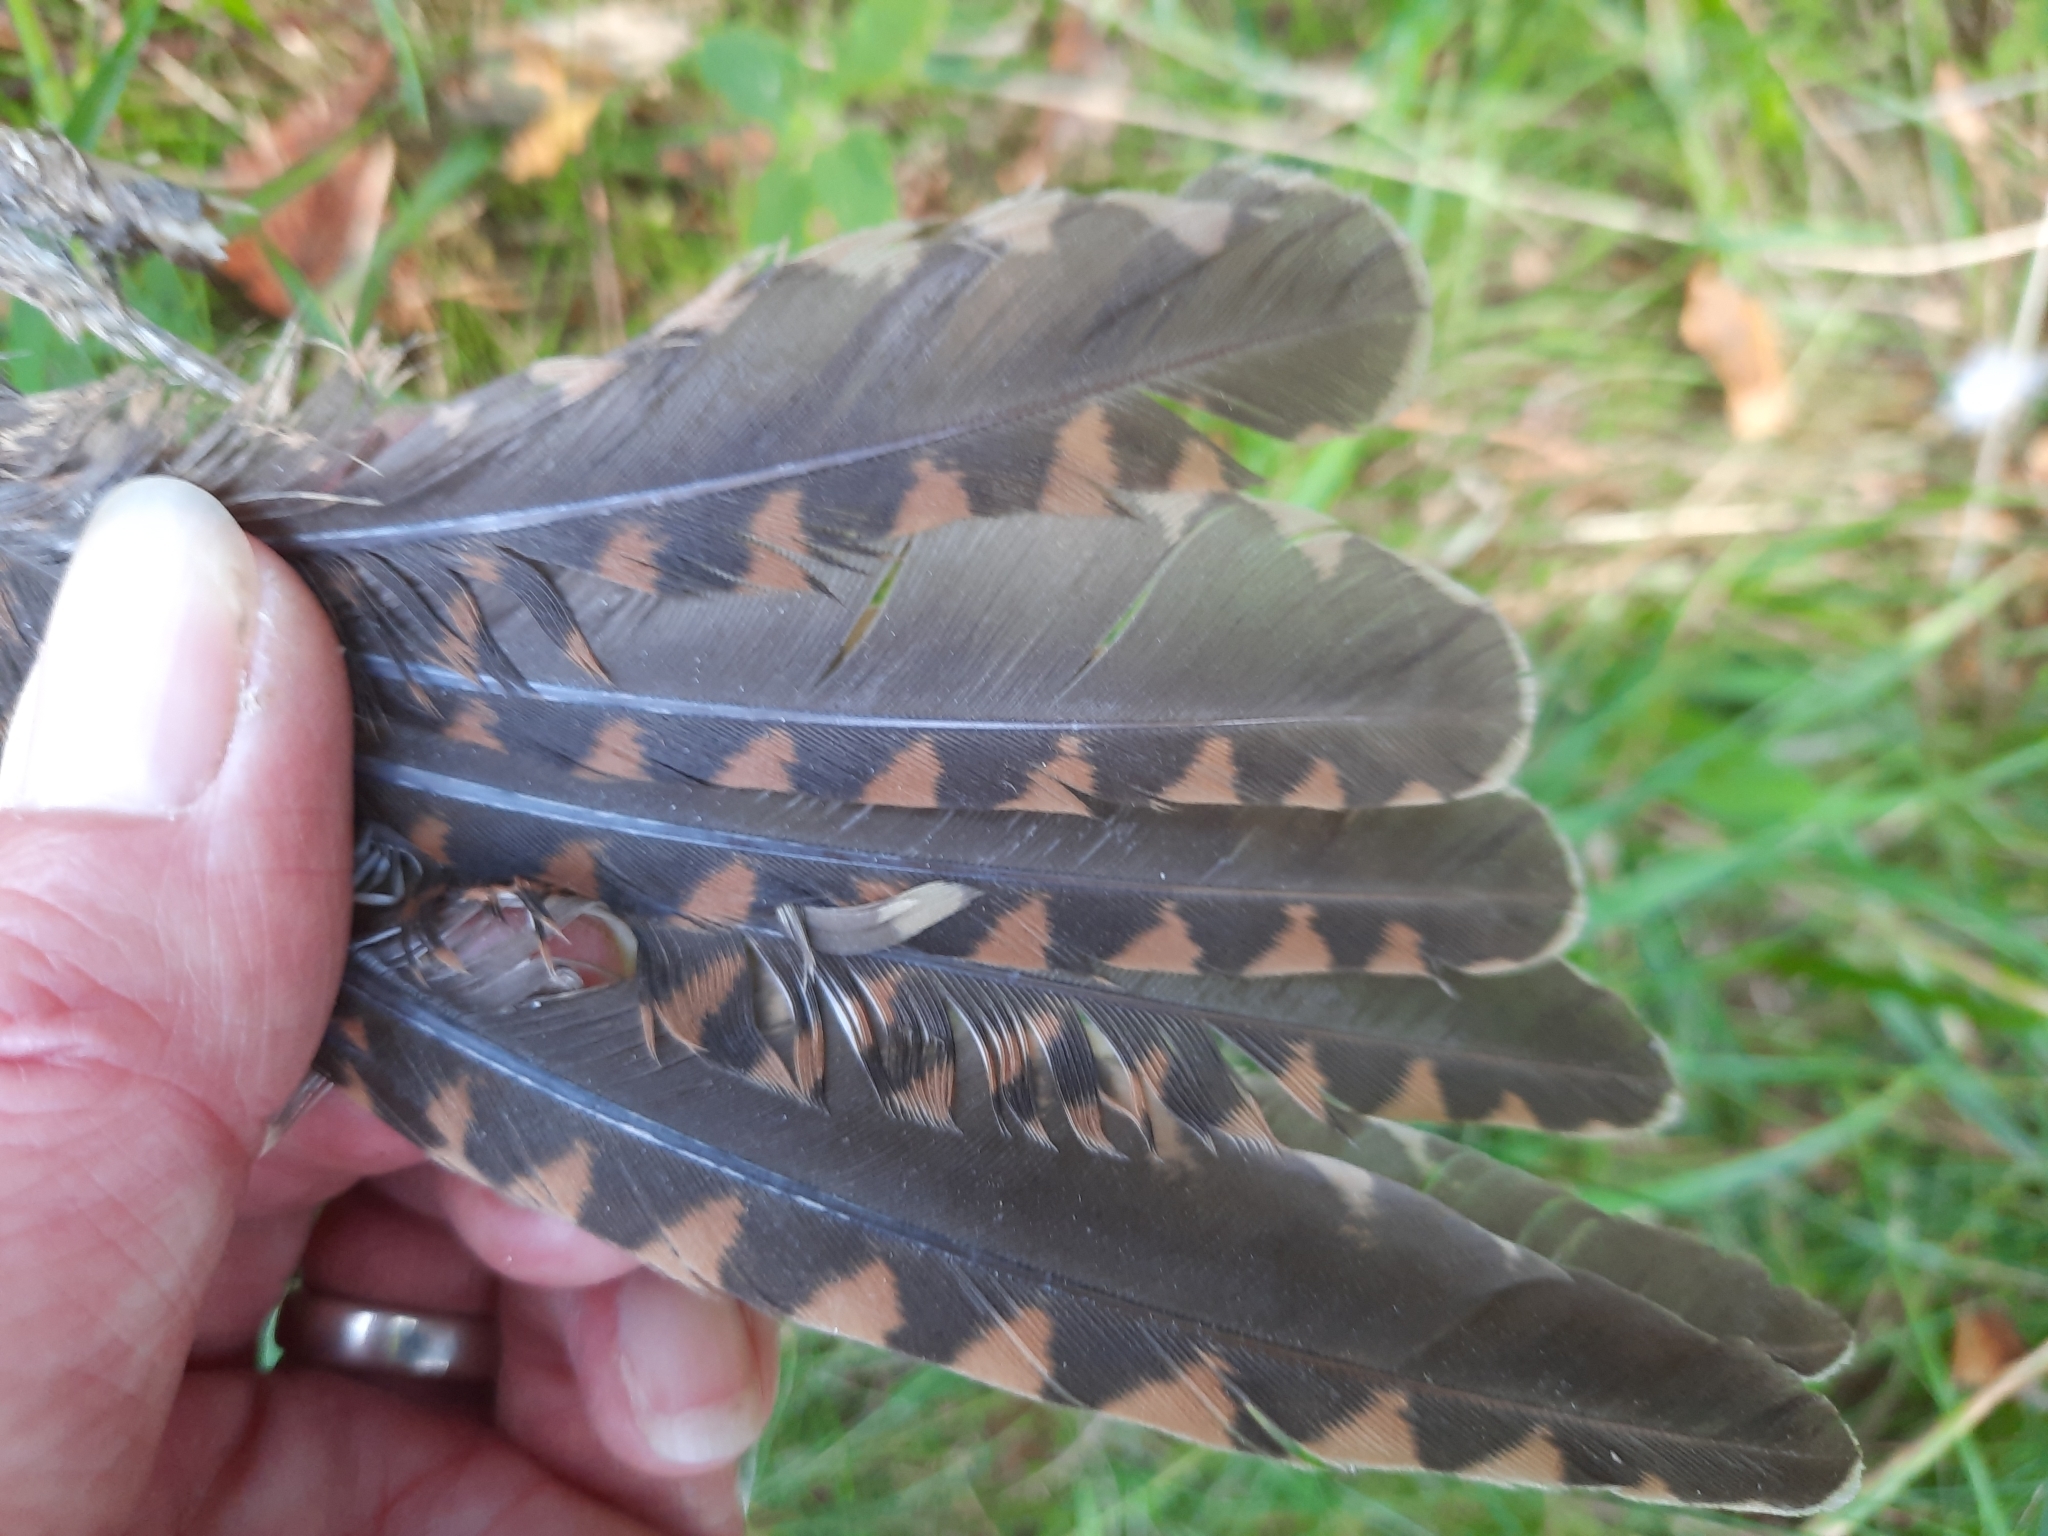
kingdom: Animalia
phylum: Chordata
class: Aves
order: Charadriiformes
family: Scolopacidae
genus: Scolopax
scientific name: Scolopax rusticola
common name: Eurasian woodcock
